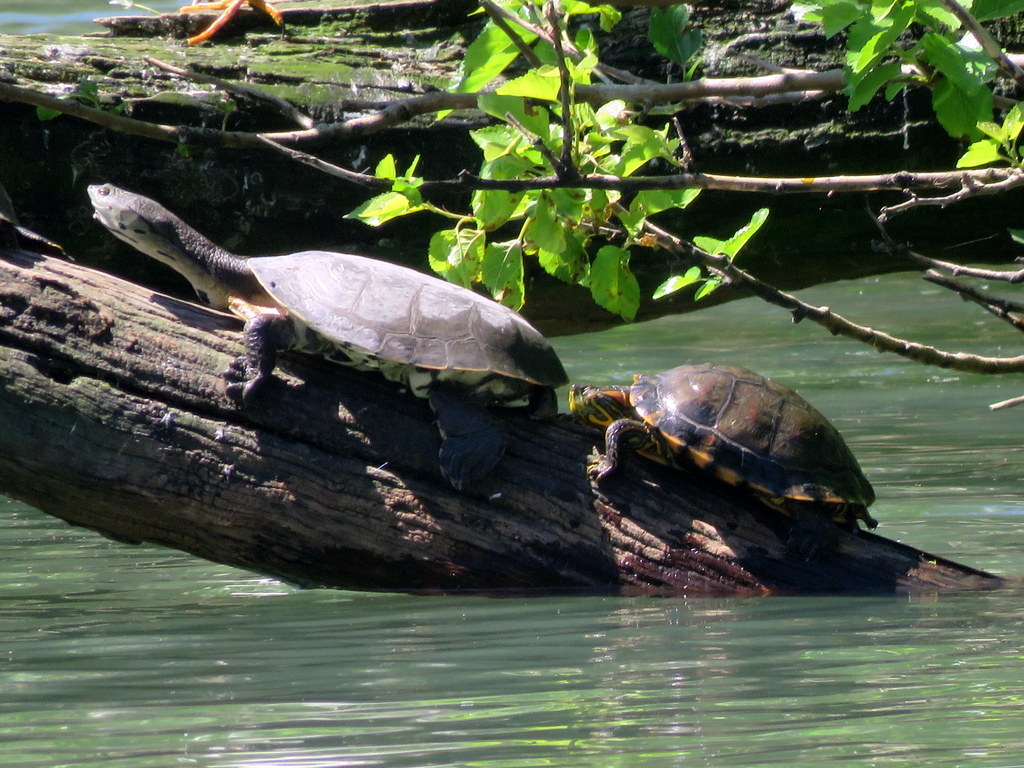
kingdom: Animalia
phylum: Chordata
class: Testudines
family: Chelidae
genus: Phrynops
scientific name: Phrynops hilarii
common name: Side-necked turtle of saint hillaire
